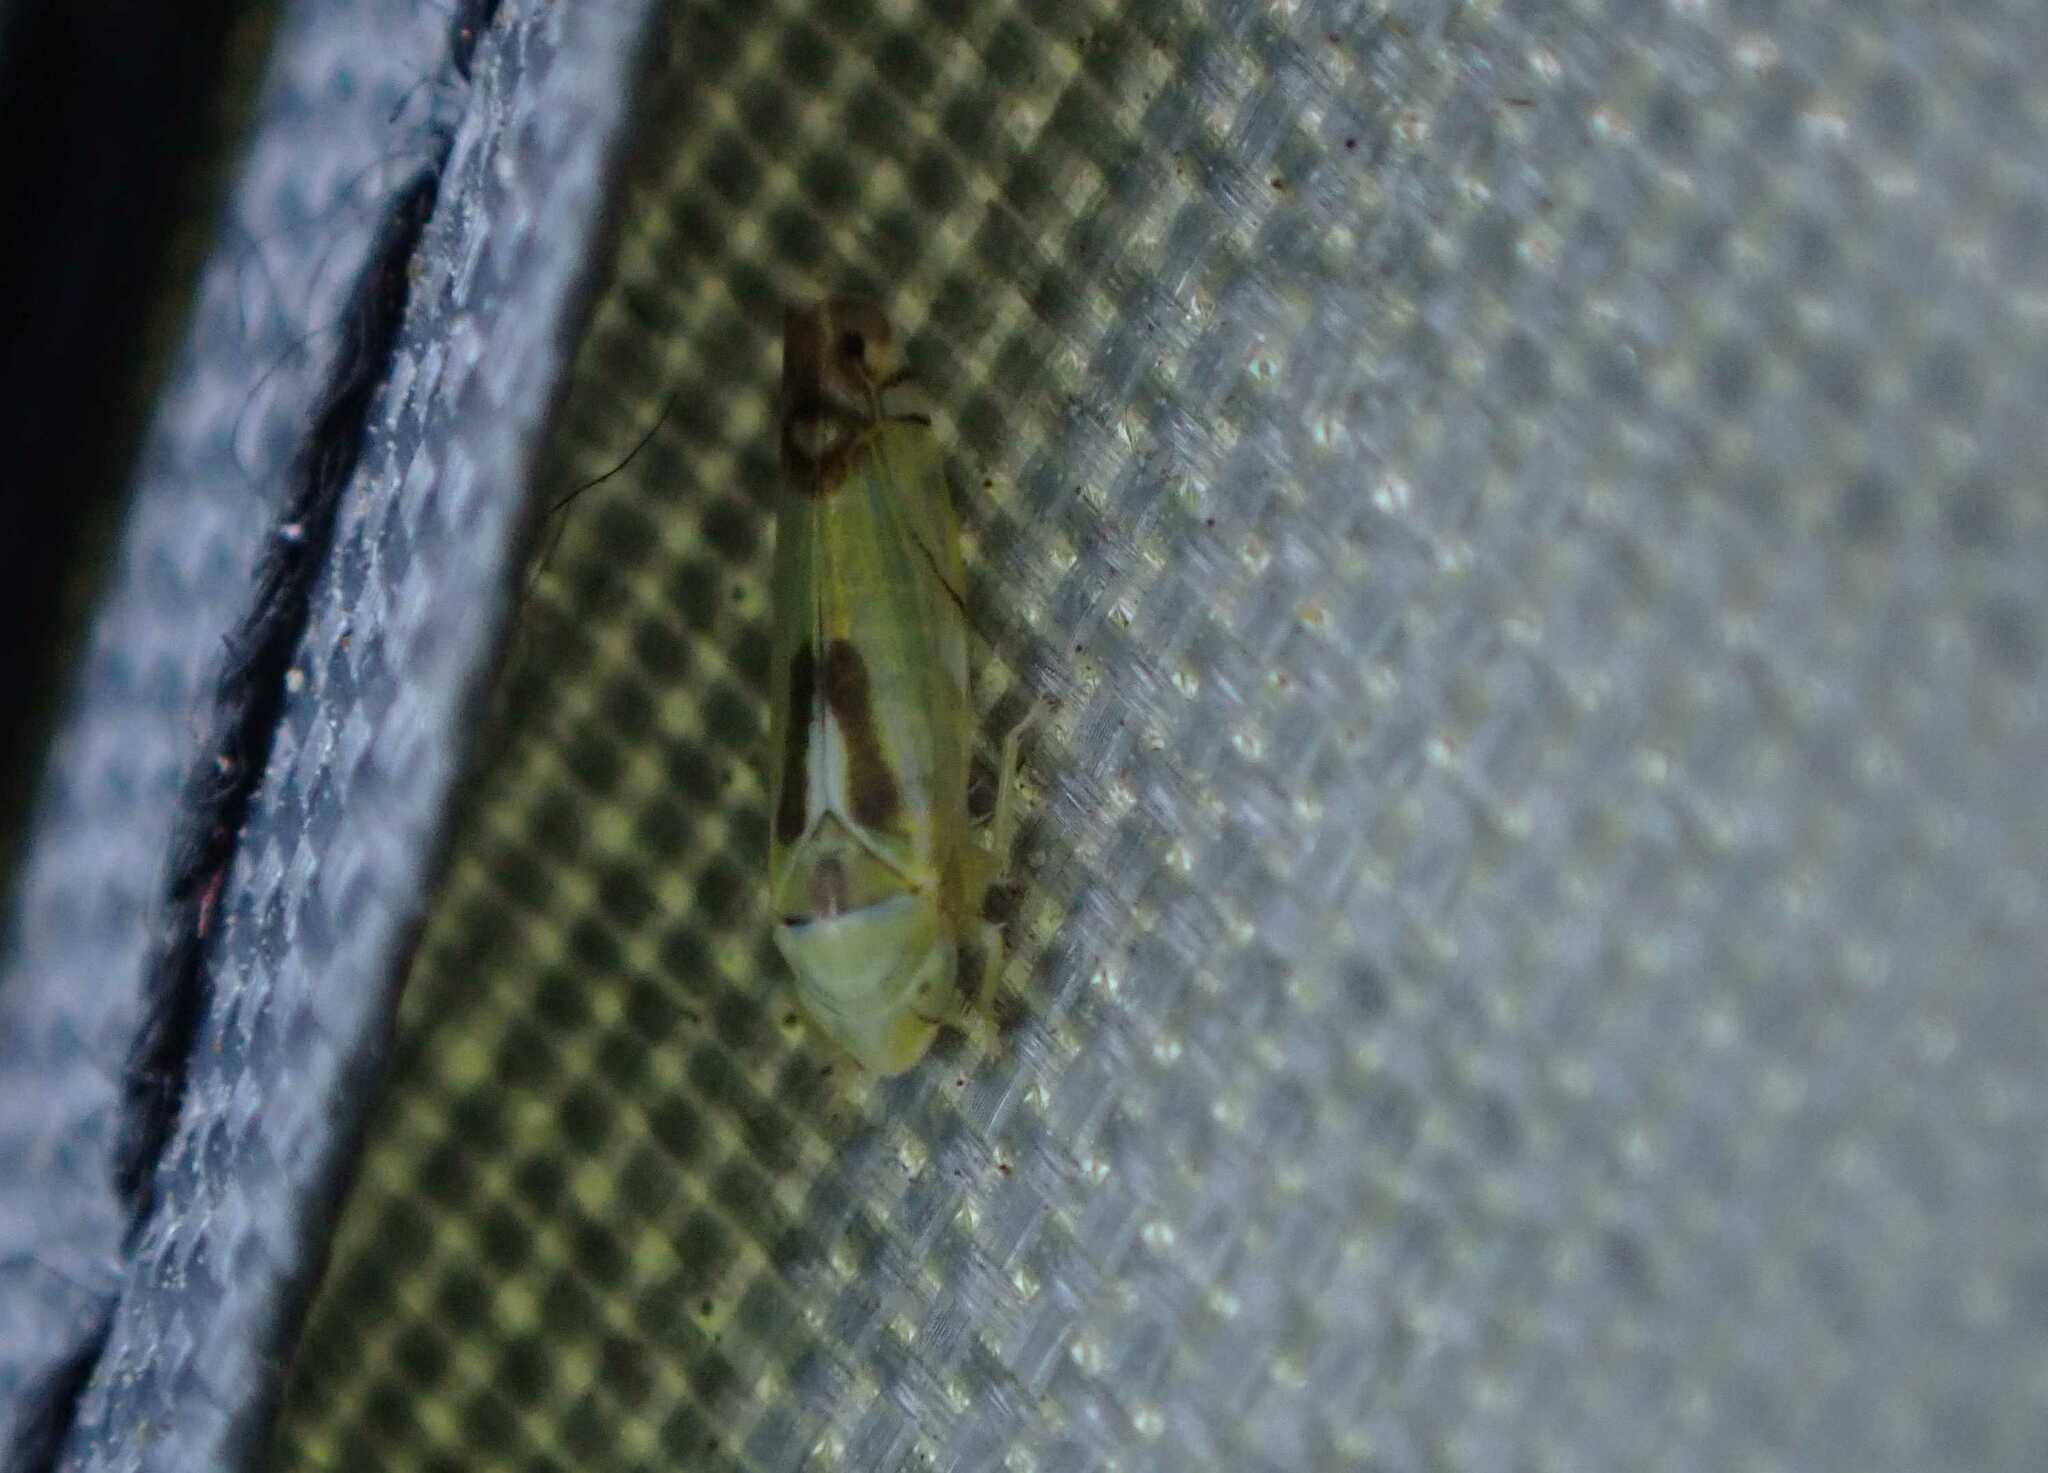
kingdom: Animalia
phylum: Arthropoda
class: Insecta
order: Hemiptera
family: Cicadellidae
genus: Zyginella
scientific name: Zyginella pulchra
